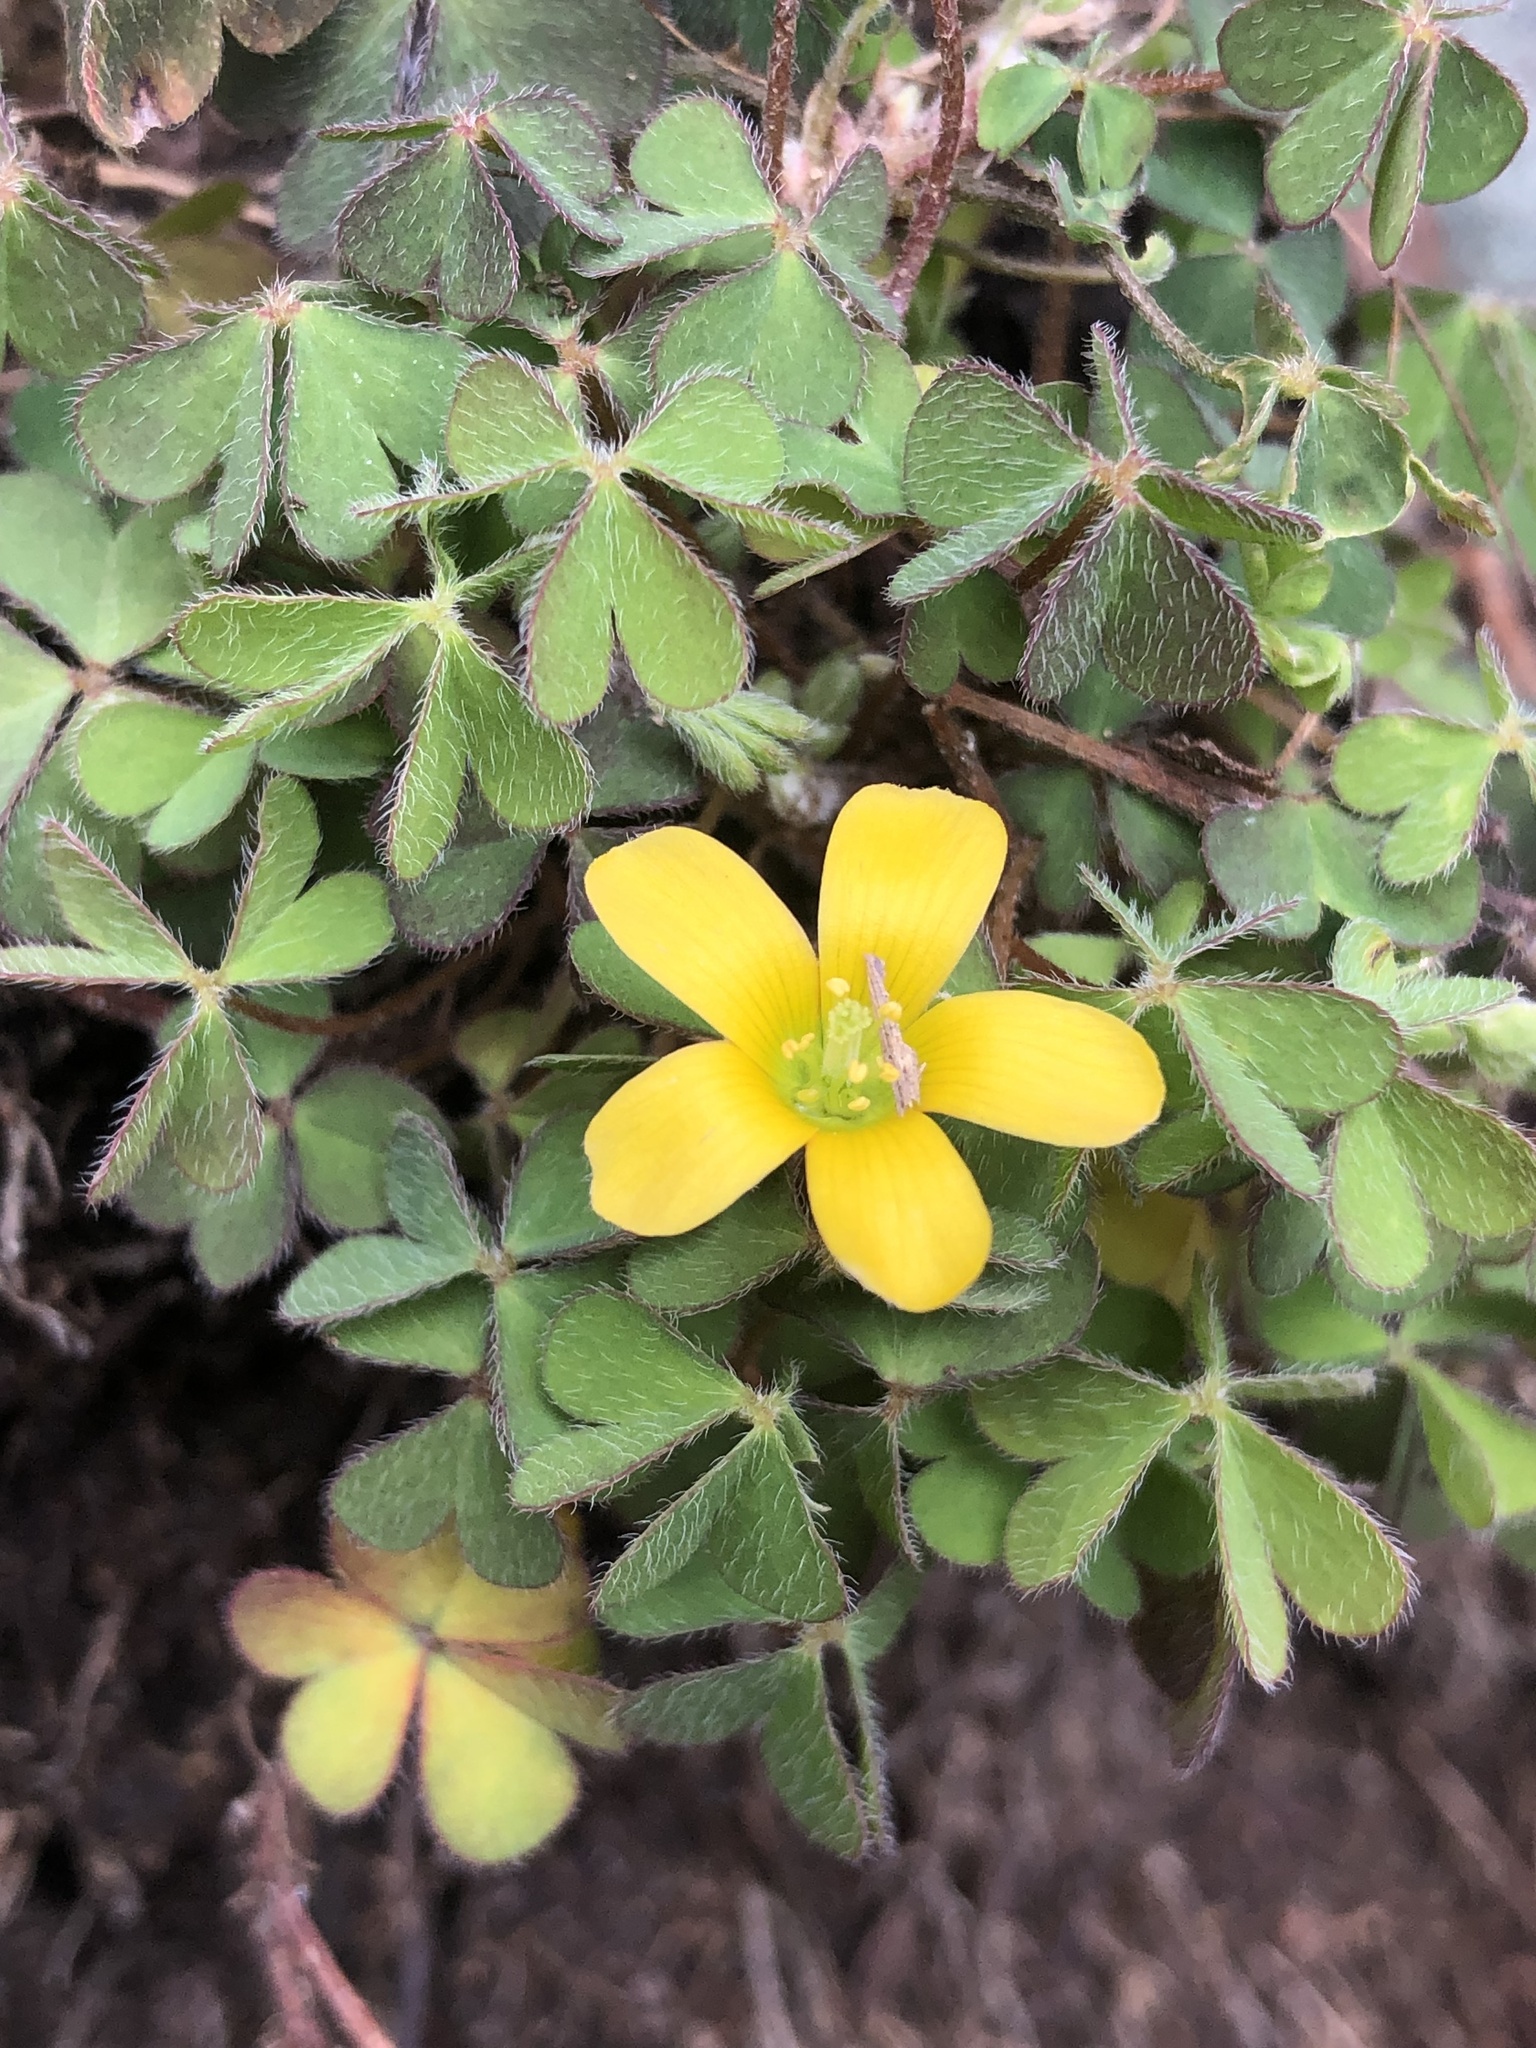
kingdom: Plantae
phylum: Tracheophyta
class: Magnoliopsida
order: Oxalidales
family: Oxalidaceae
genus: Oxalis
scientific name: Oxalis corniculata
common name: Procumbent yellow-sorrel
